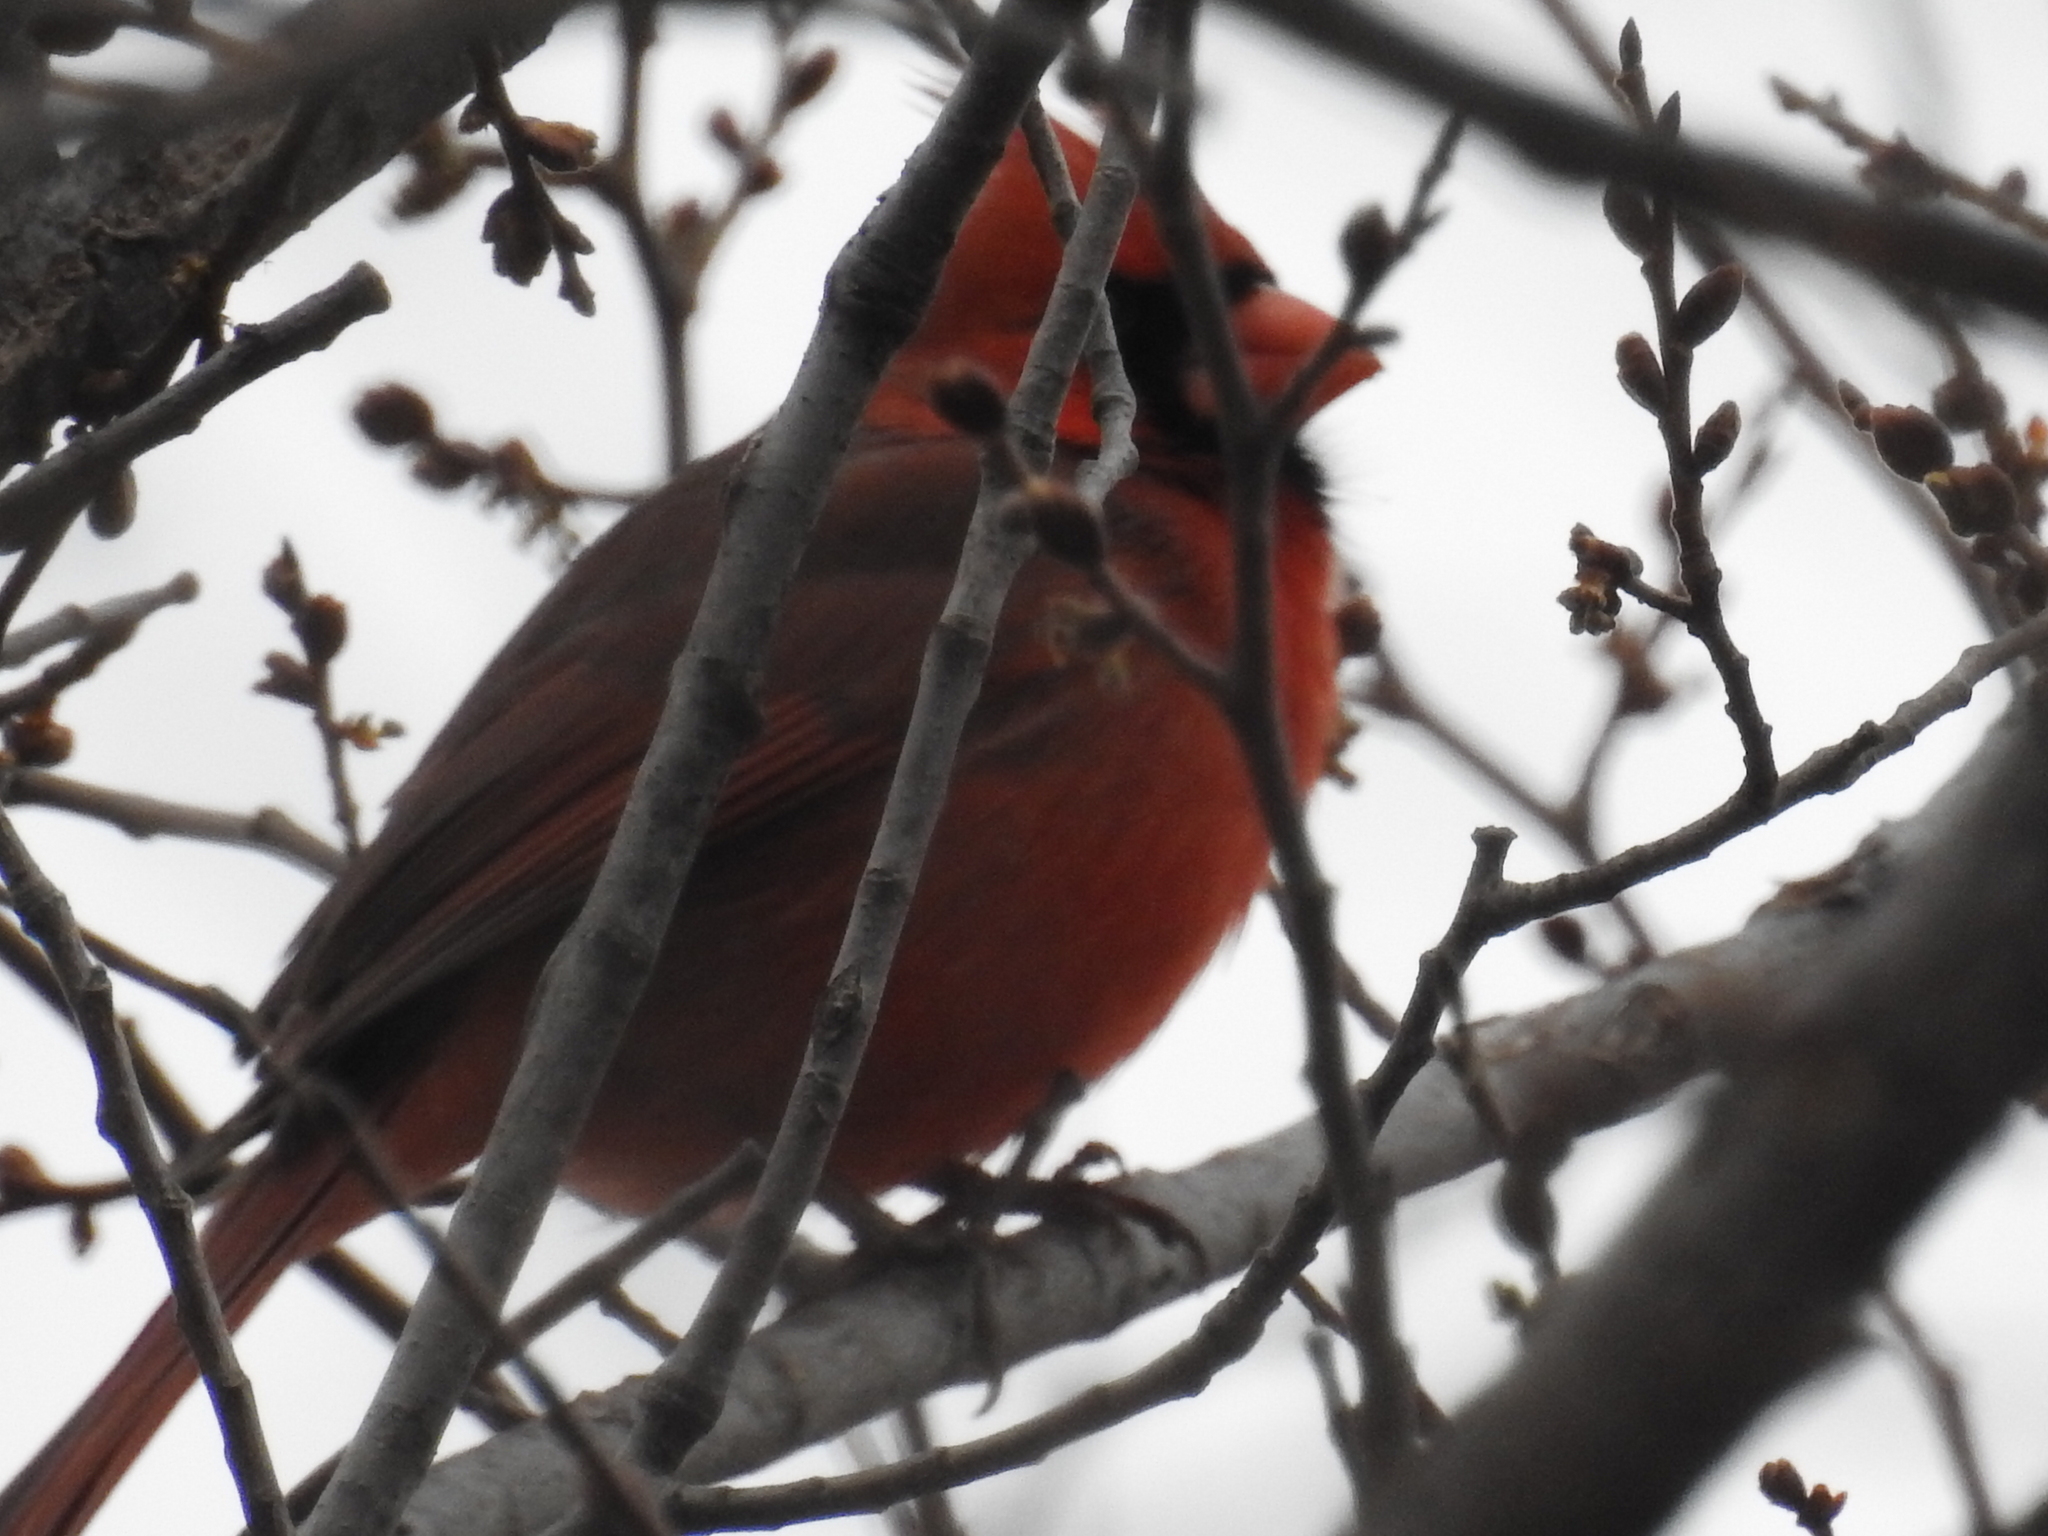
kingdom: Animalia
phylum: Chordata
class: Aves
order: Passeriformes
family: Cardinalidae
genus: Cardinalis
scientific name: Cardinalis cardinalis
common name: Northern cardinal
